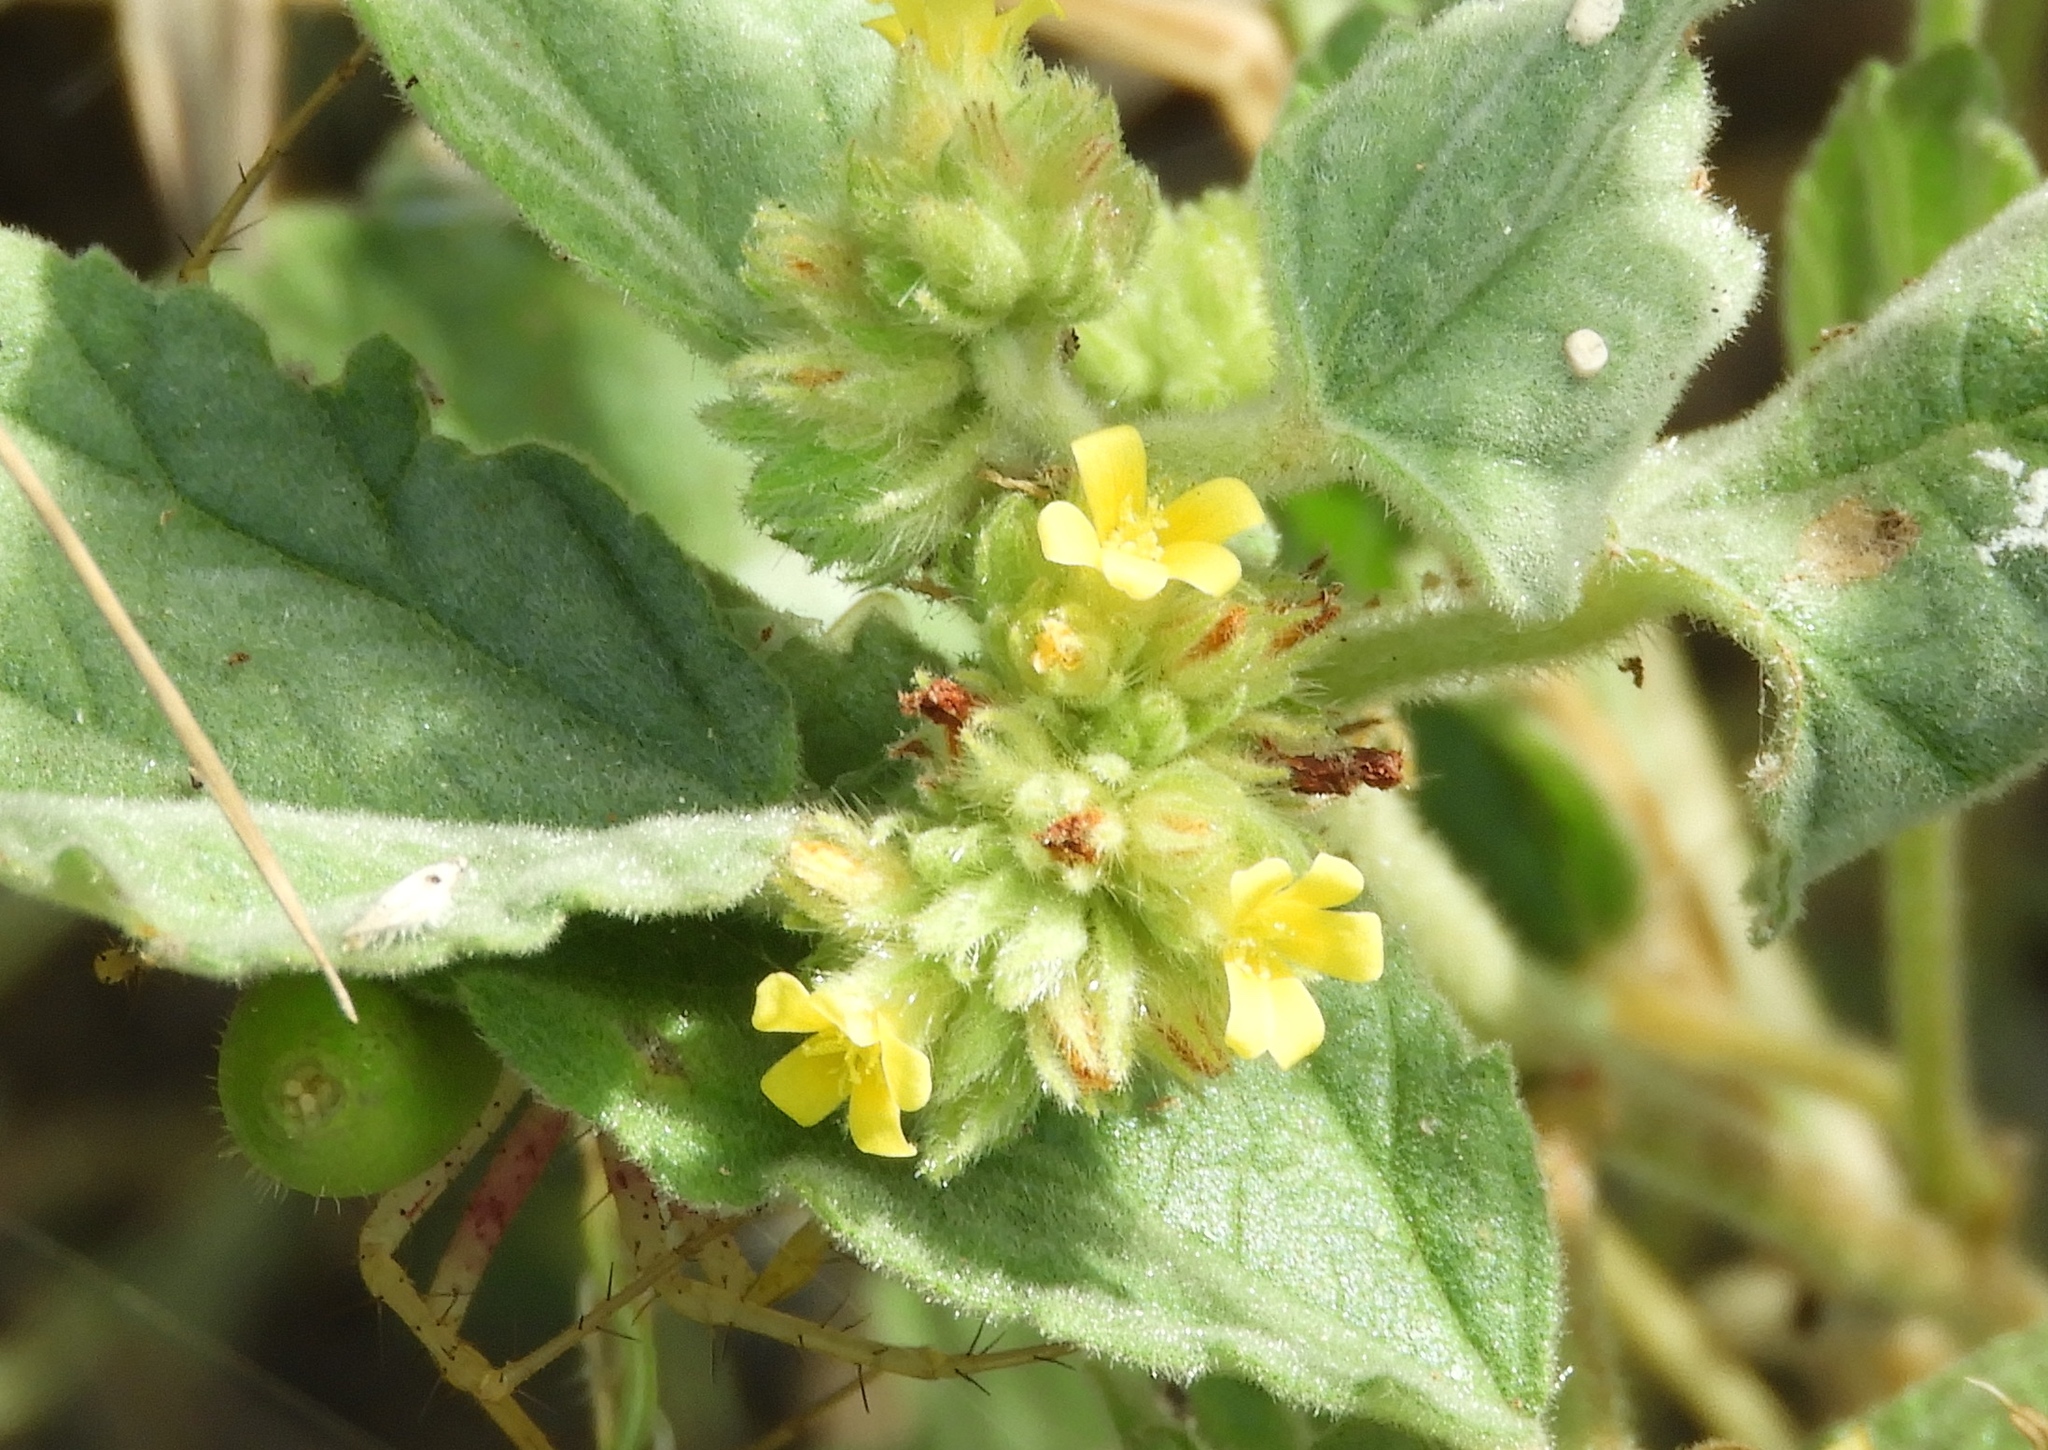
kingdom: Plantae
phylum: Tracheophyta
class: Magnoliopsida
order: Malvales
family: Malvaceae
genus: Waltheria
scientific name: Waltheria indica
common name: Leather-coat
